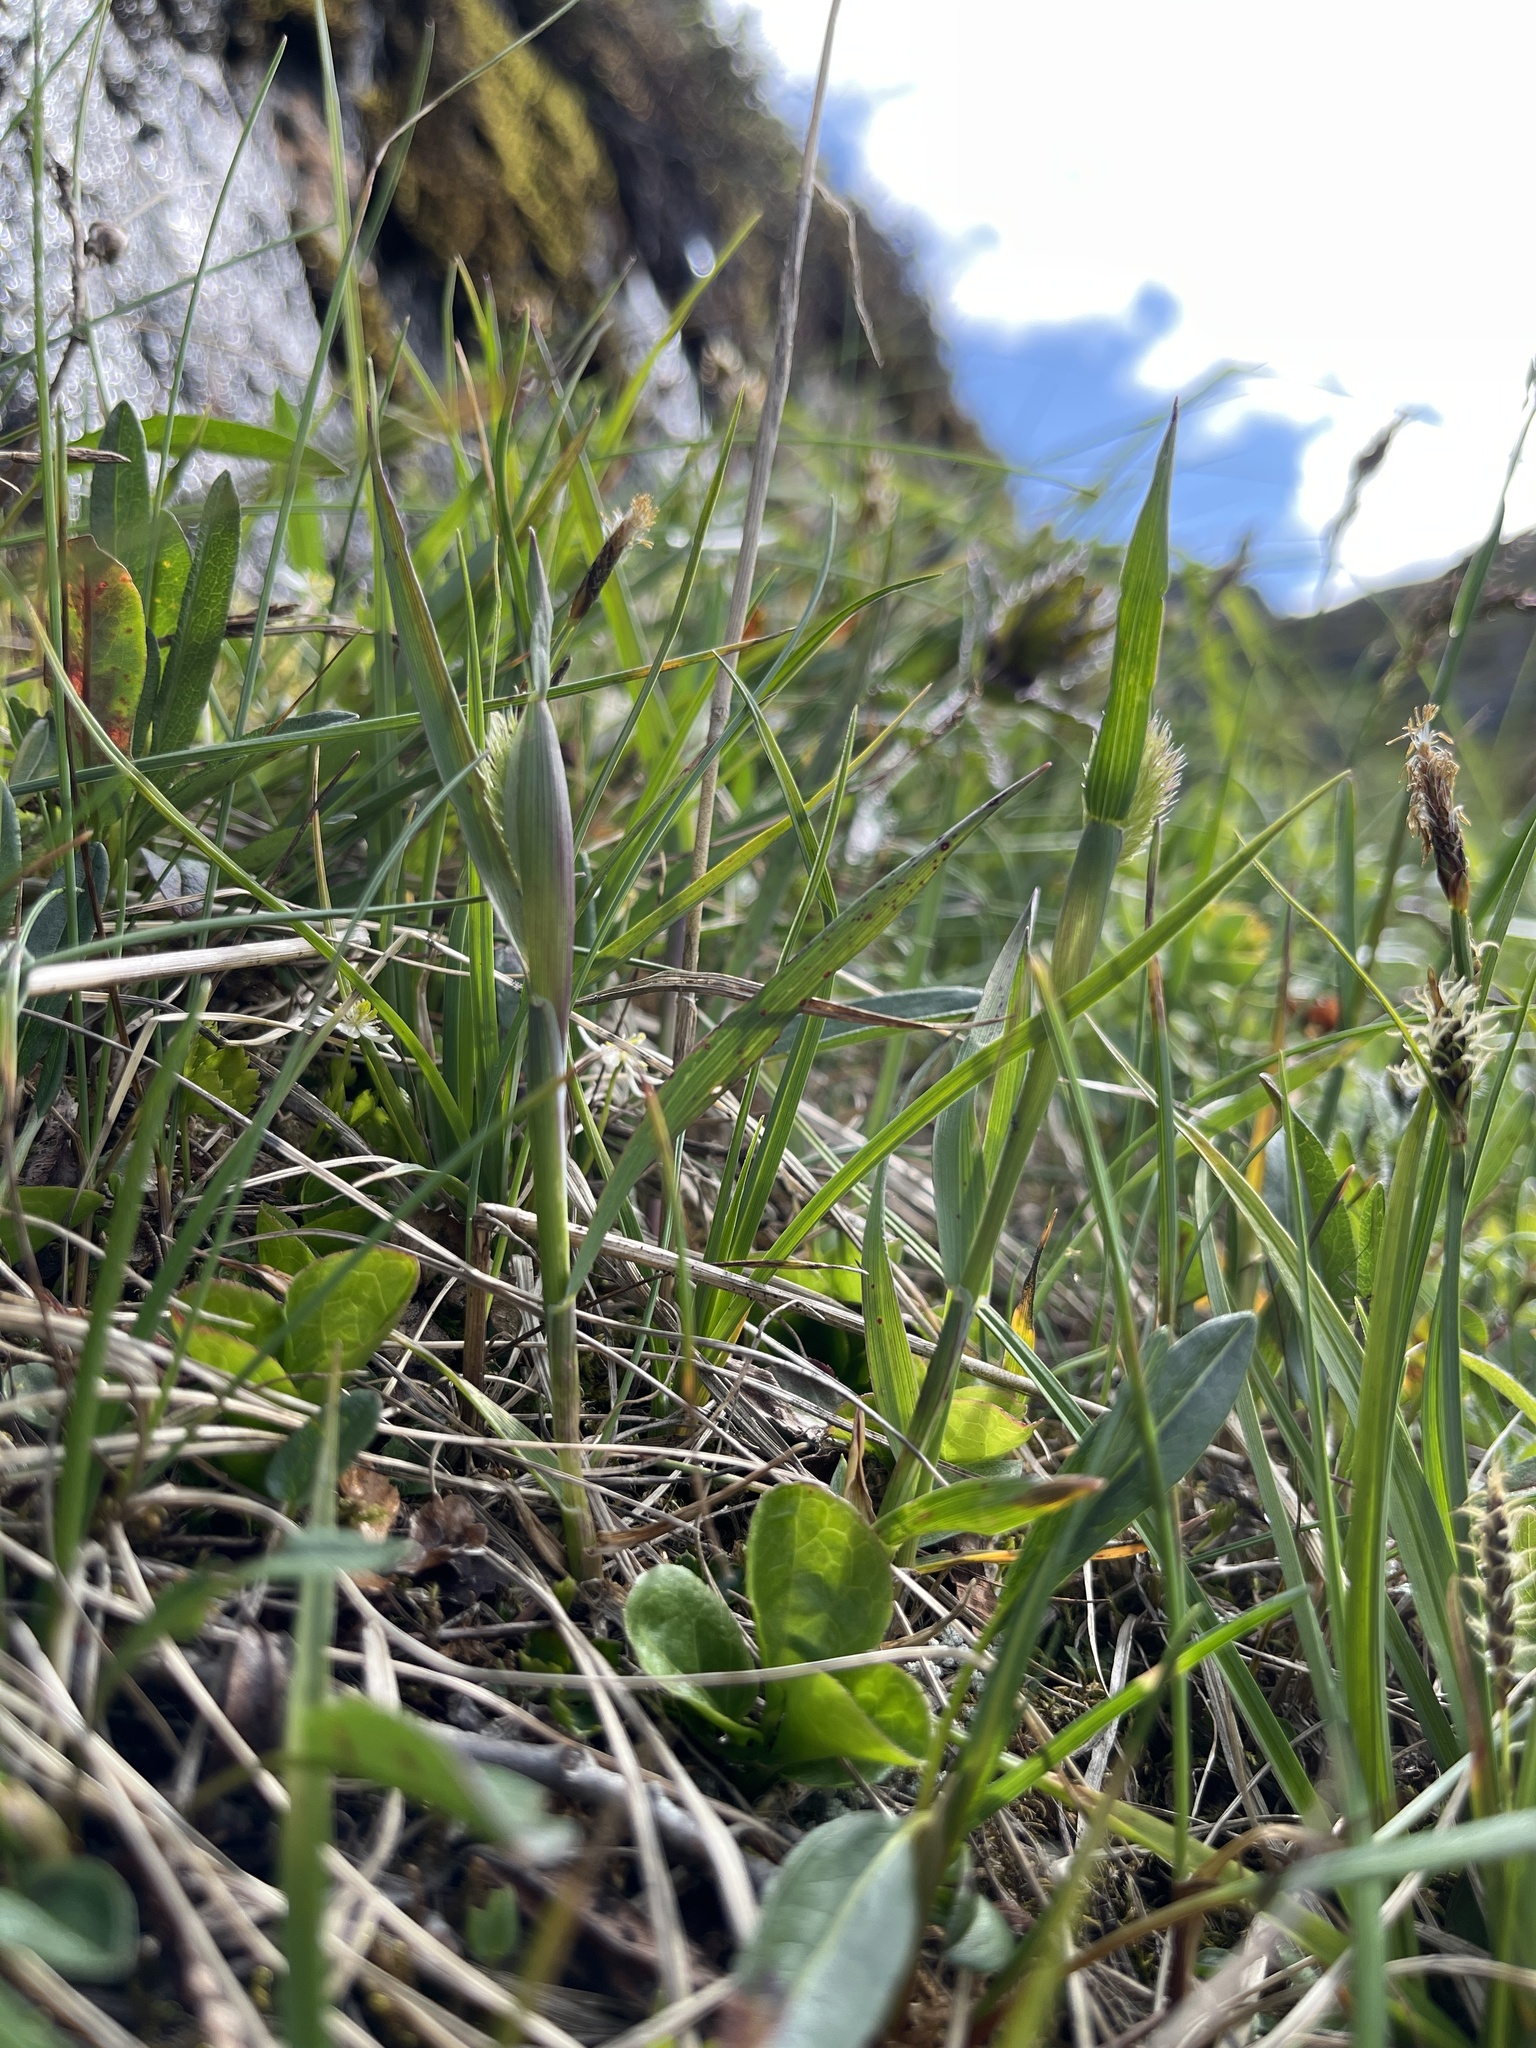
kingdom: Plantae
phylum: Tracheophyta
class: Liliopsida
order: Poales
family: Poaceae
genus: Phleum
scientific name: Phleum alpinum
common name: Alpine cat's-tail
